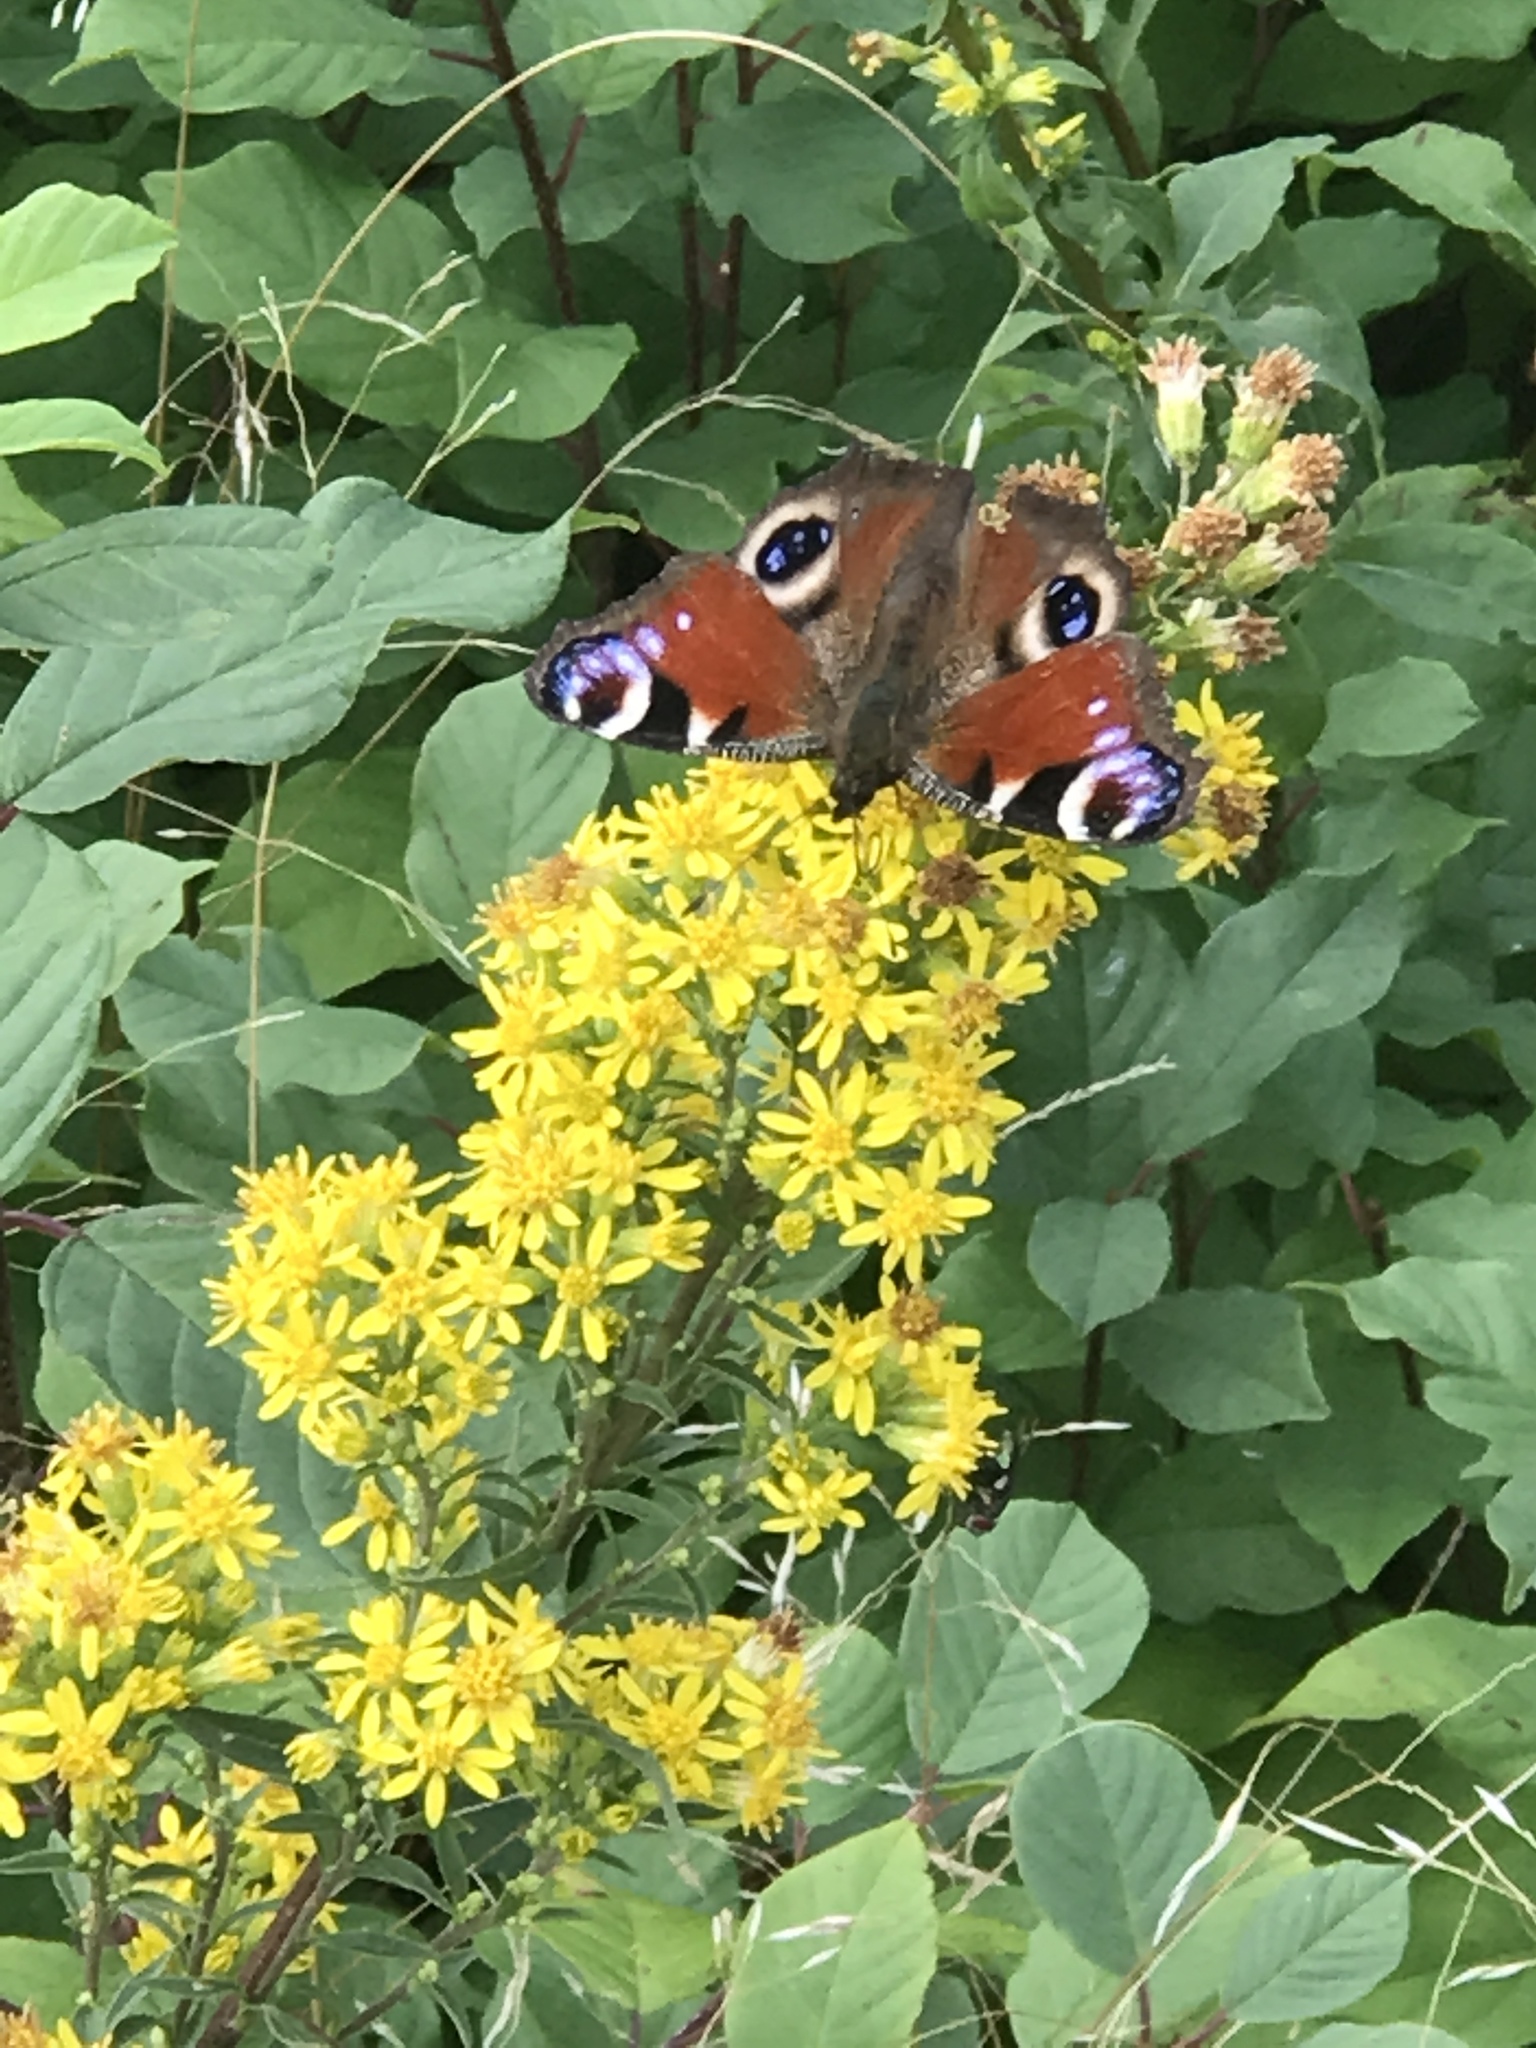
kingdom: Animalia
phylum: Arthropoda
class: Insecta
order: Lepidoptera
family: Nymphalidae
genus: Aglais
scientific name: Aglais io
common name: Peacock
